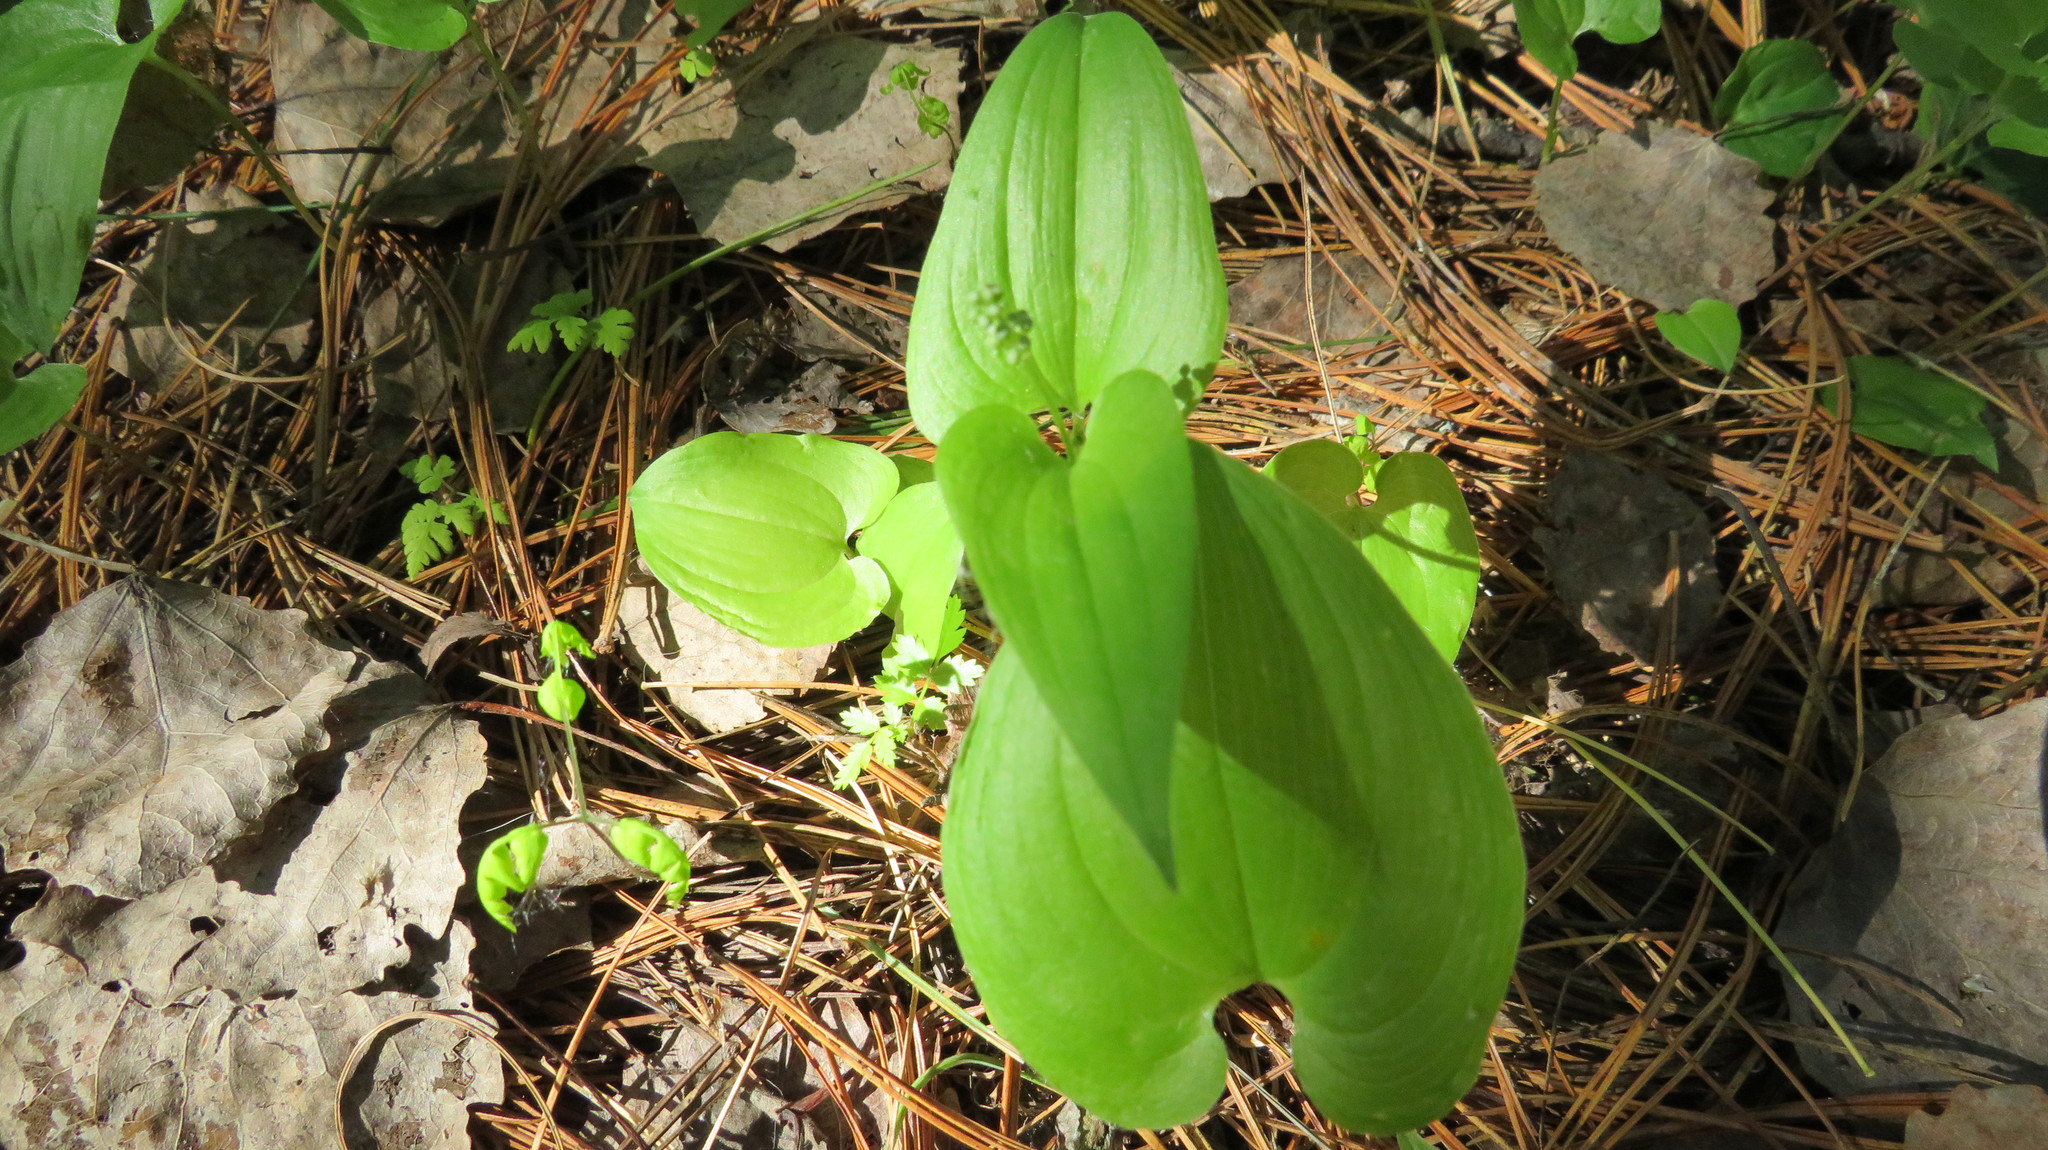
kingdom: Plantae
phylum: Tracheophyta
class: Liliopsida
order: Asparagales
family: Asparagaceae
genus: Maianthemum
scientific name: Maianthemum bifolium
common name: May lily
